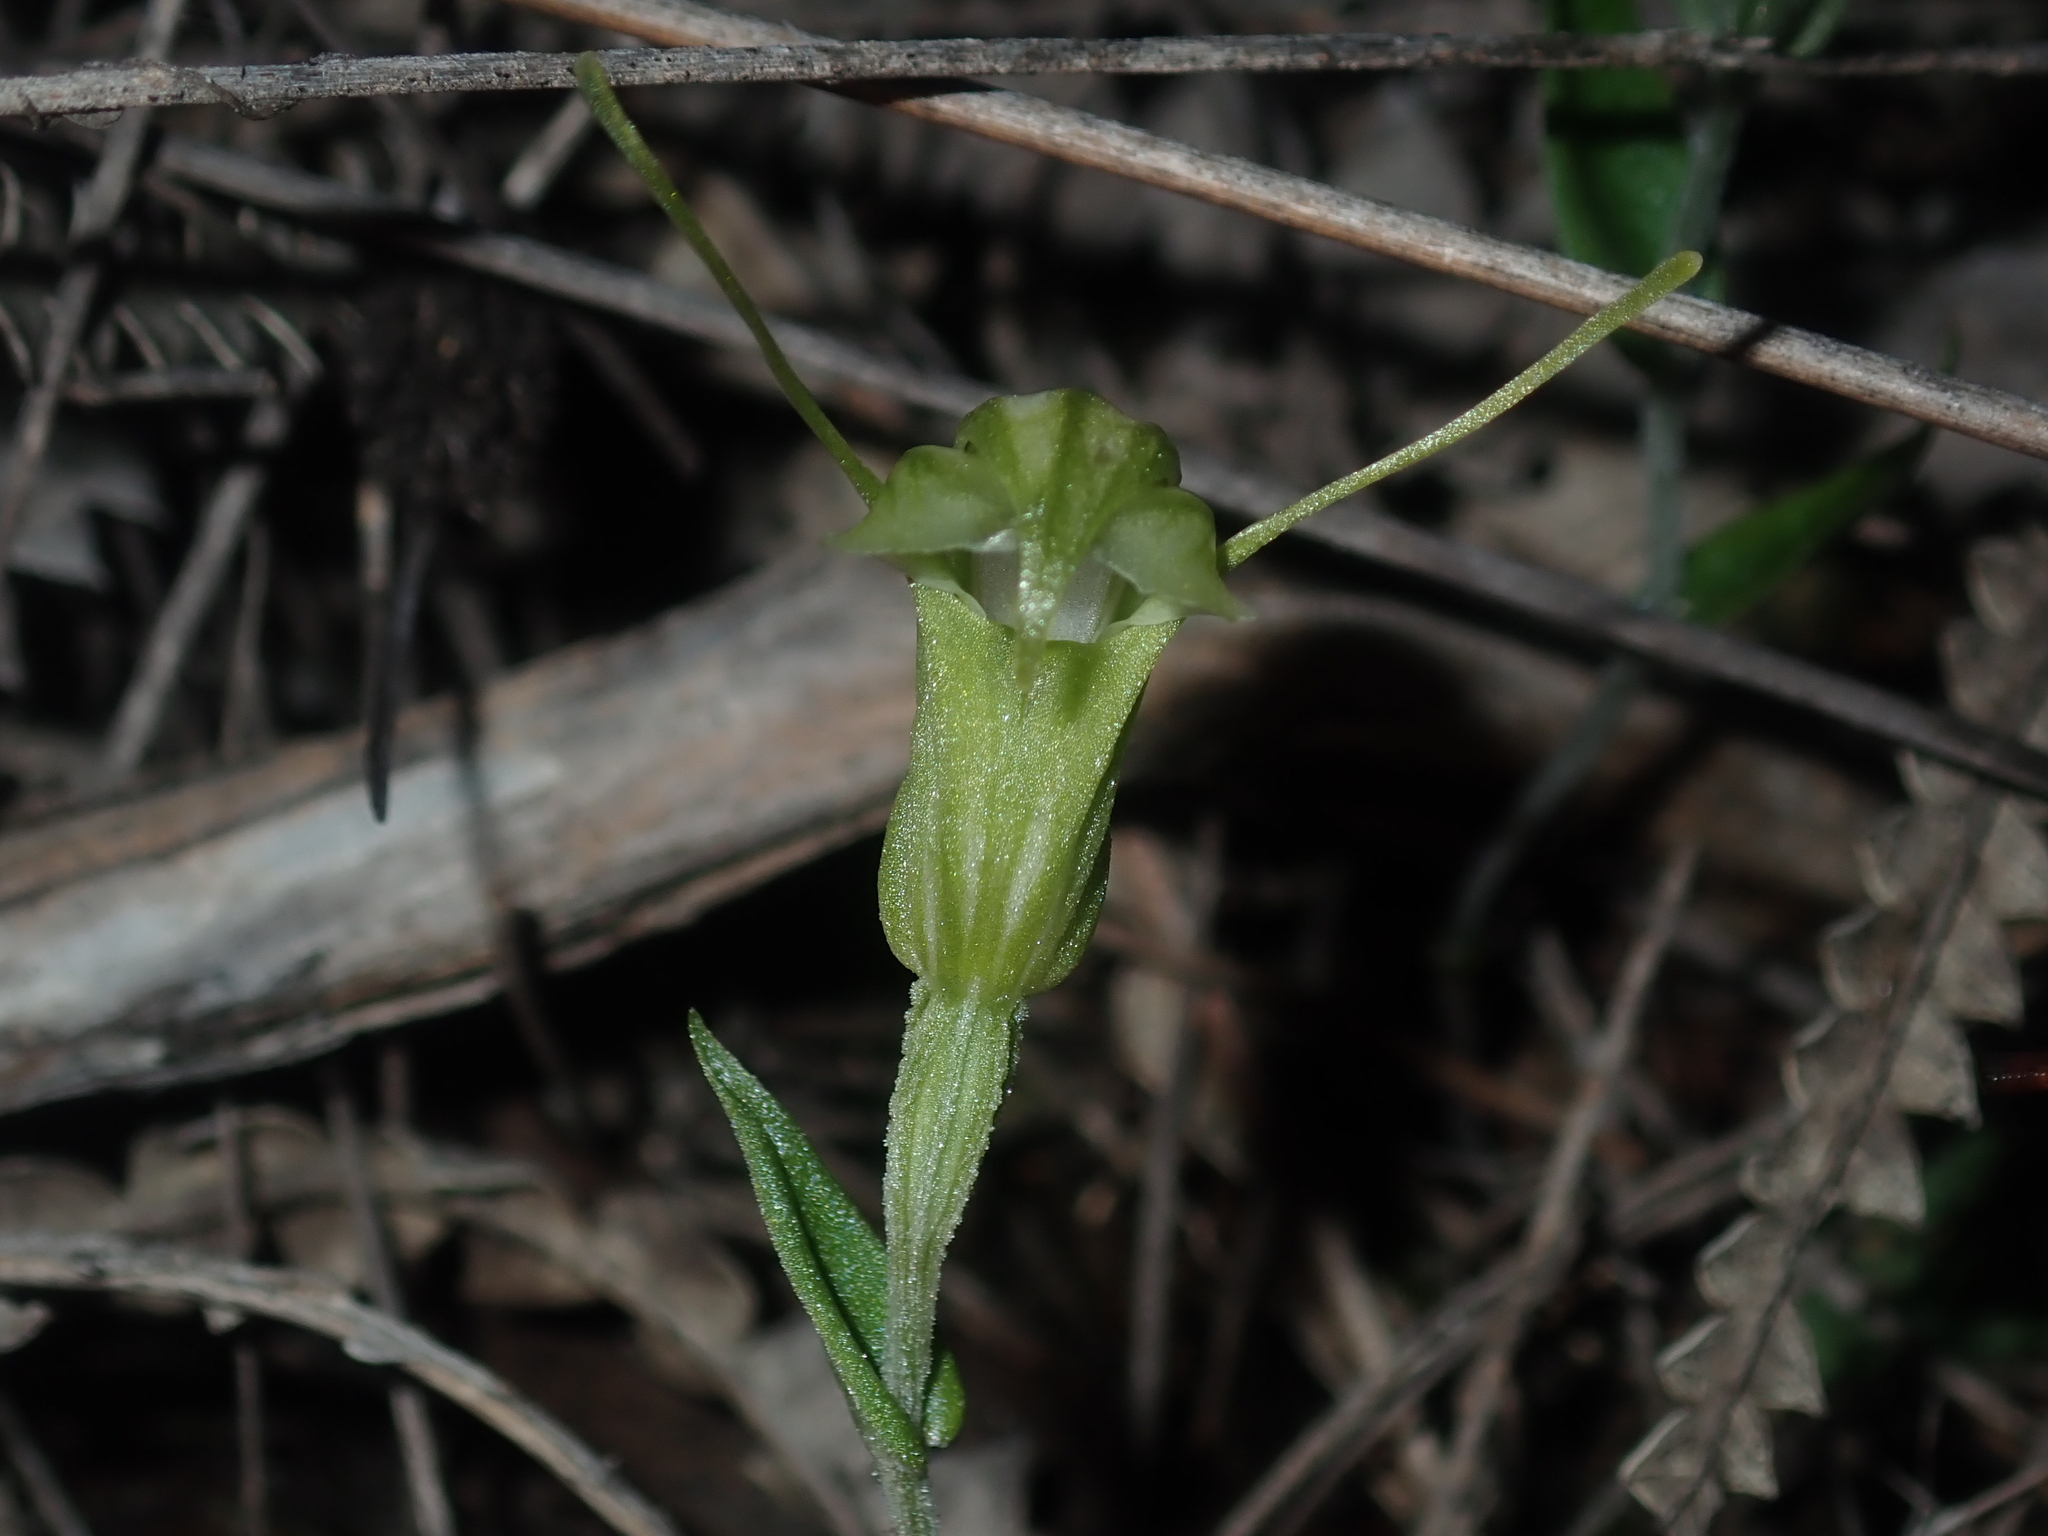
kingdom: Plantae
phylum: Tracheophyta
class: Liliopsida
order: Asparagales
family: Orchidaceae
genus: Pterostylis
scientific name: Pterostylis dilatata
